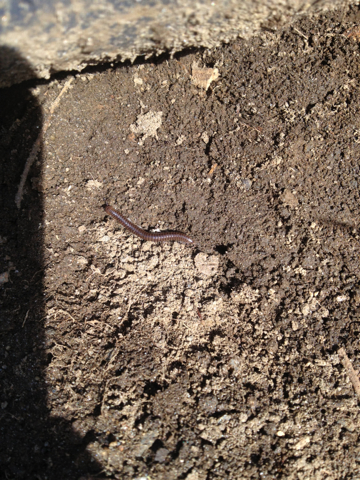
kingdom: Animalia
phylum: Arthropoda
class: Diplopoda
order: Spirobolida
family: Spirobolidae
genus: Narceus
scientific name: Narceus
